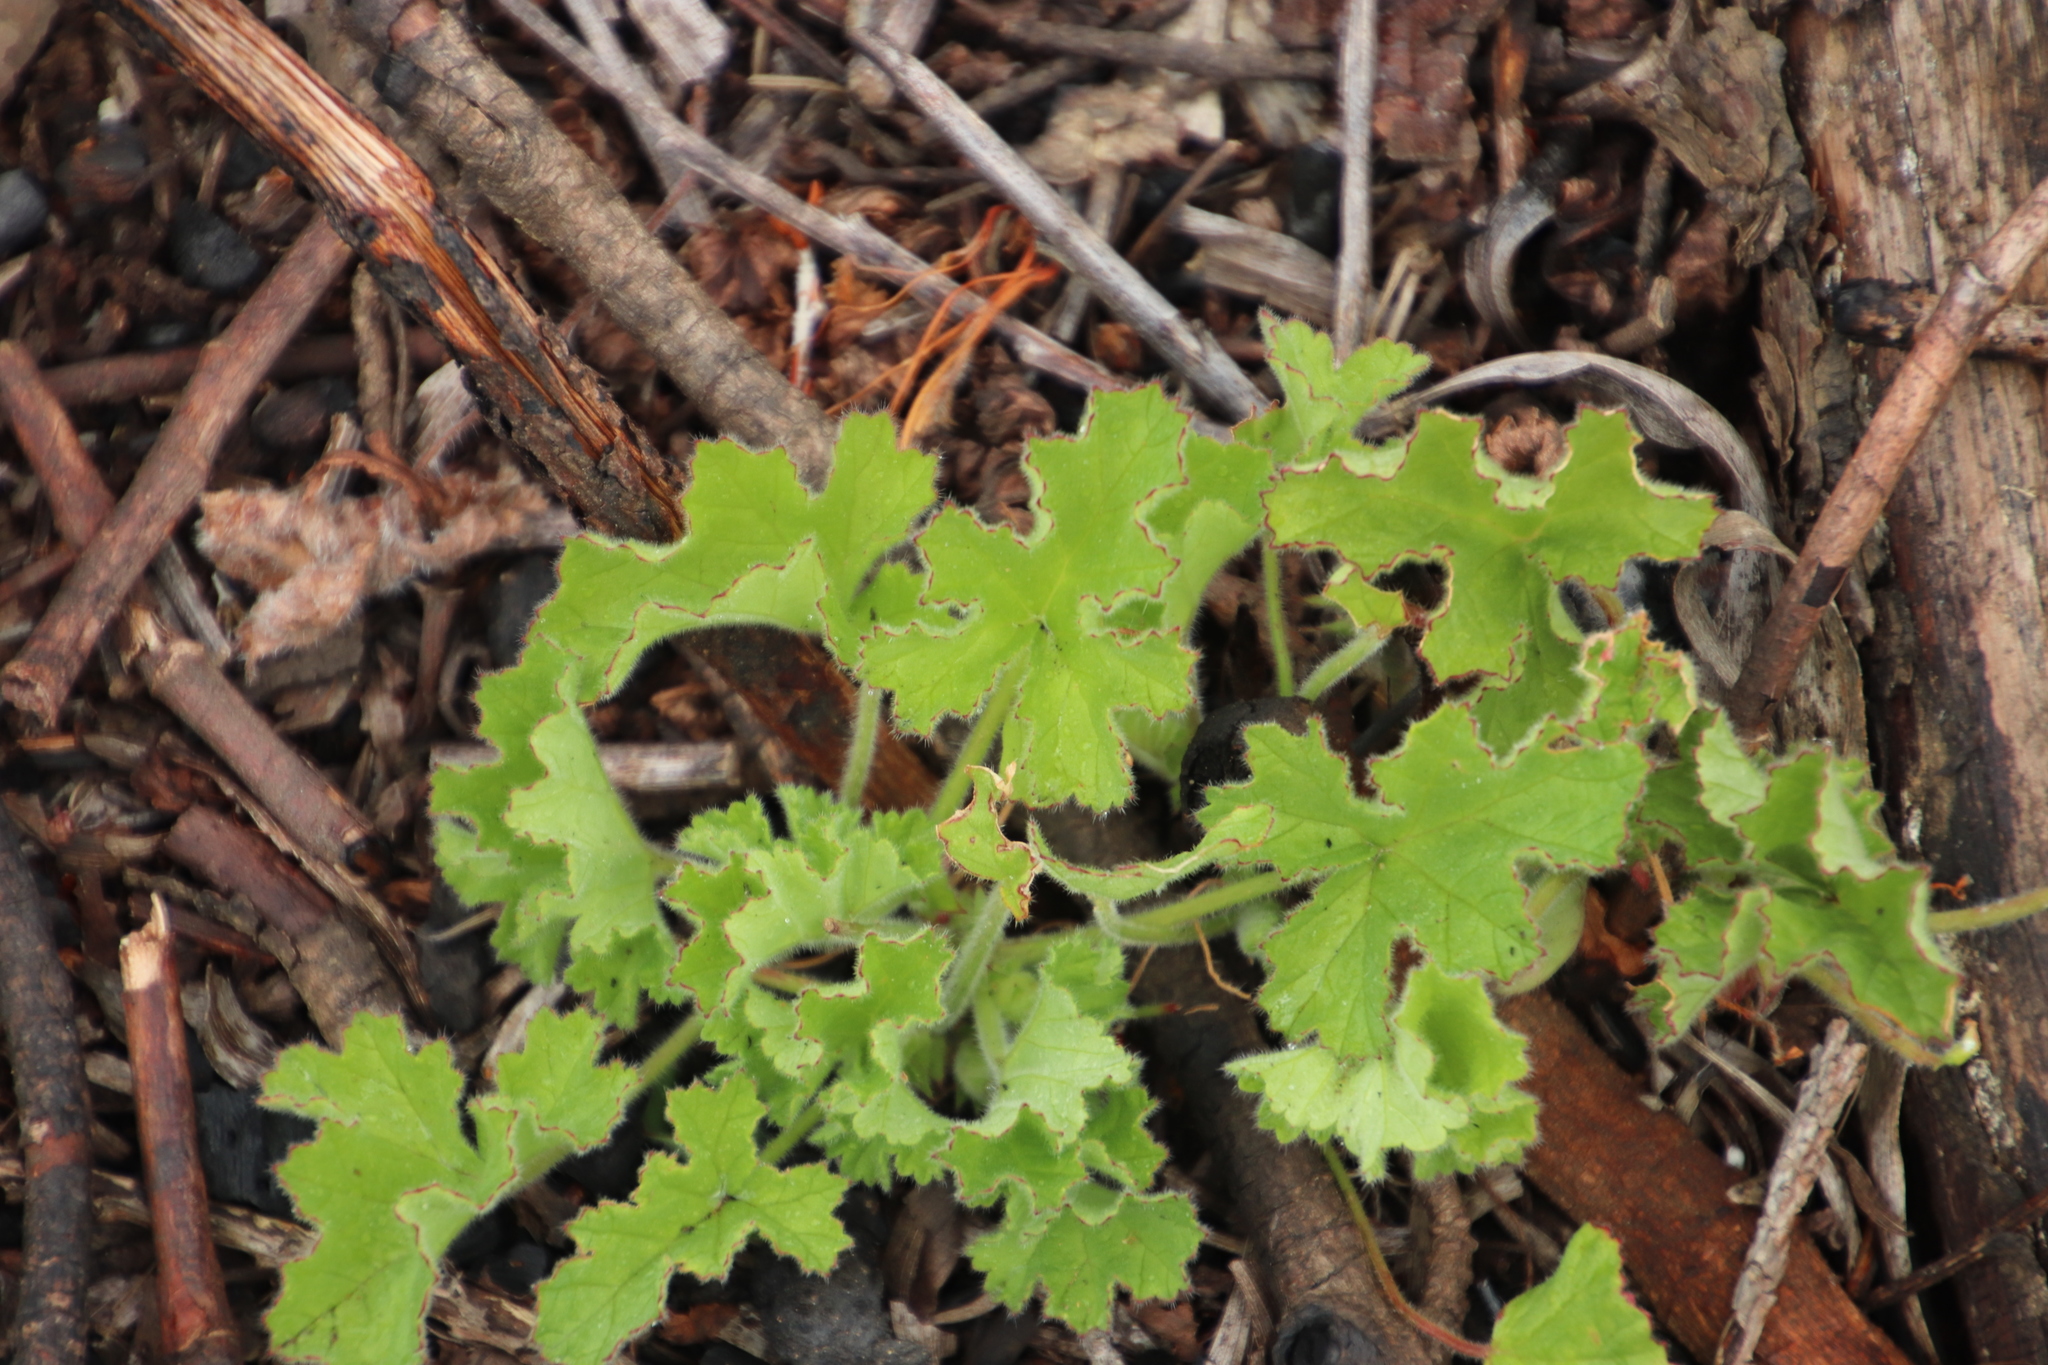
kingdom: Plantae
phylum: Tracheophyta
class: Magnoliopsida
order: Geraniales
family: Geraniaceae
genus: Pelargonium
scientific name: Pelargonium capitatum
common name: Rose scented geranium
